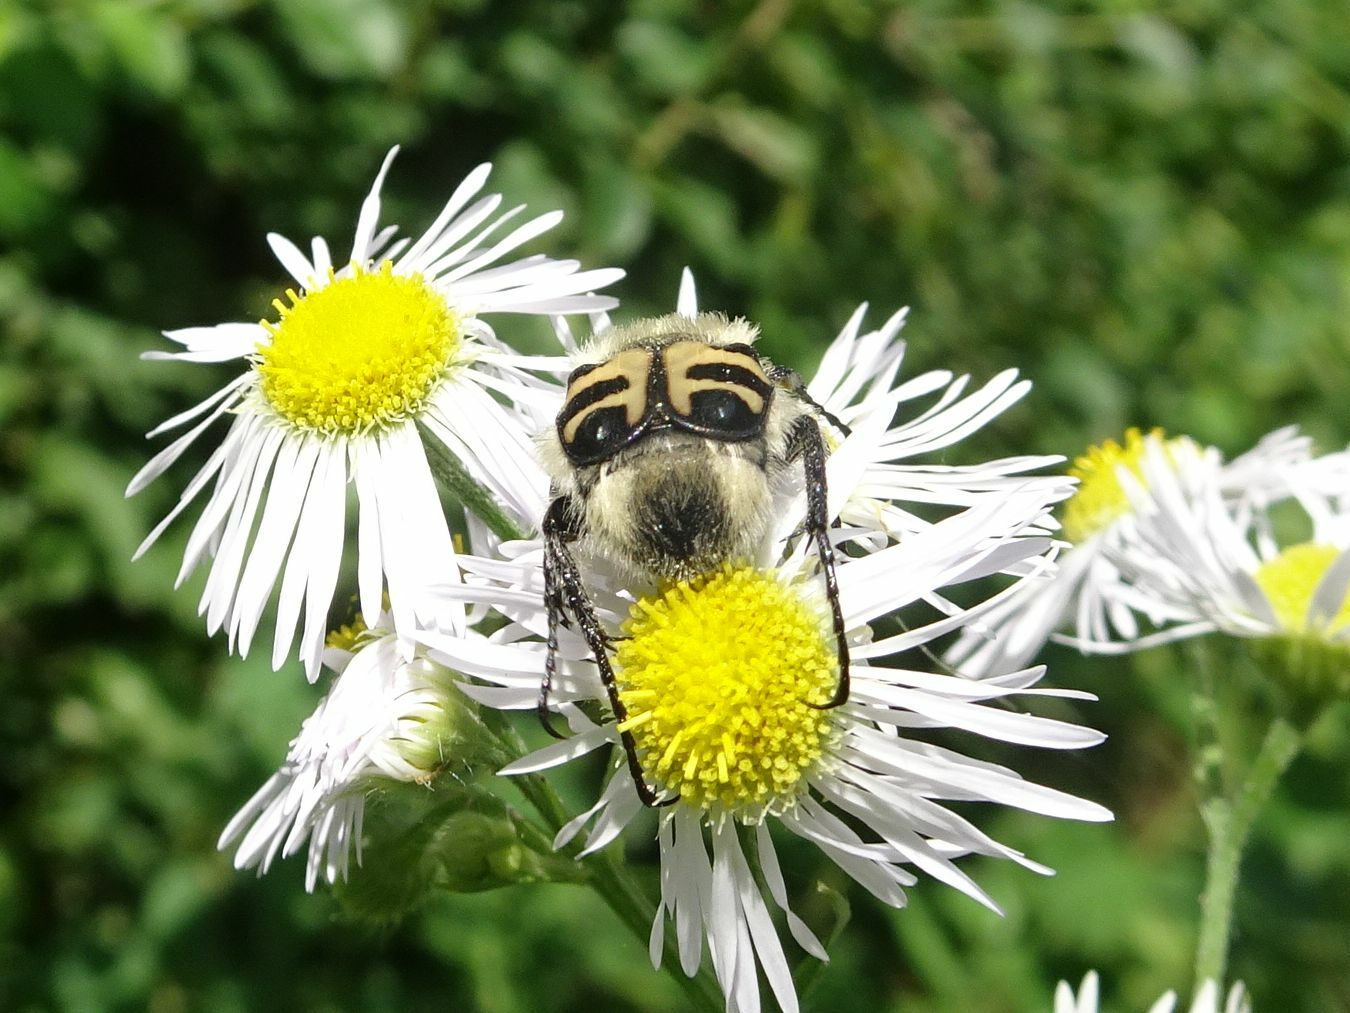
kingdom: Animalia
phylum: Arthropoda
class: Insecta
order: Coleoptera
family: Scarabaeidae
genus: Trichius
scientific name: Trichius gallicus
